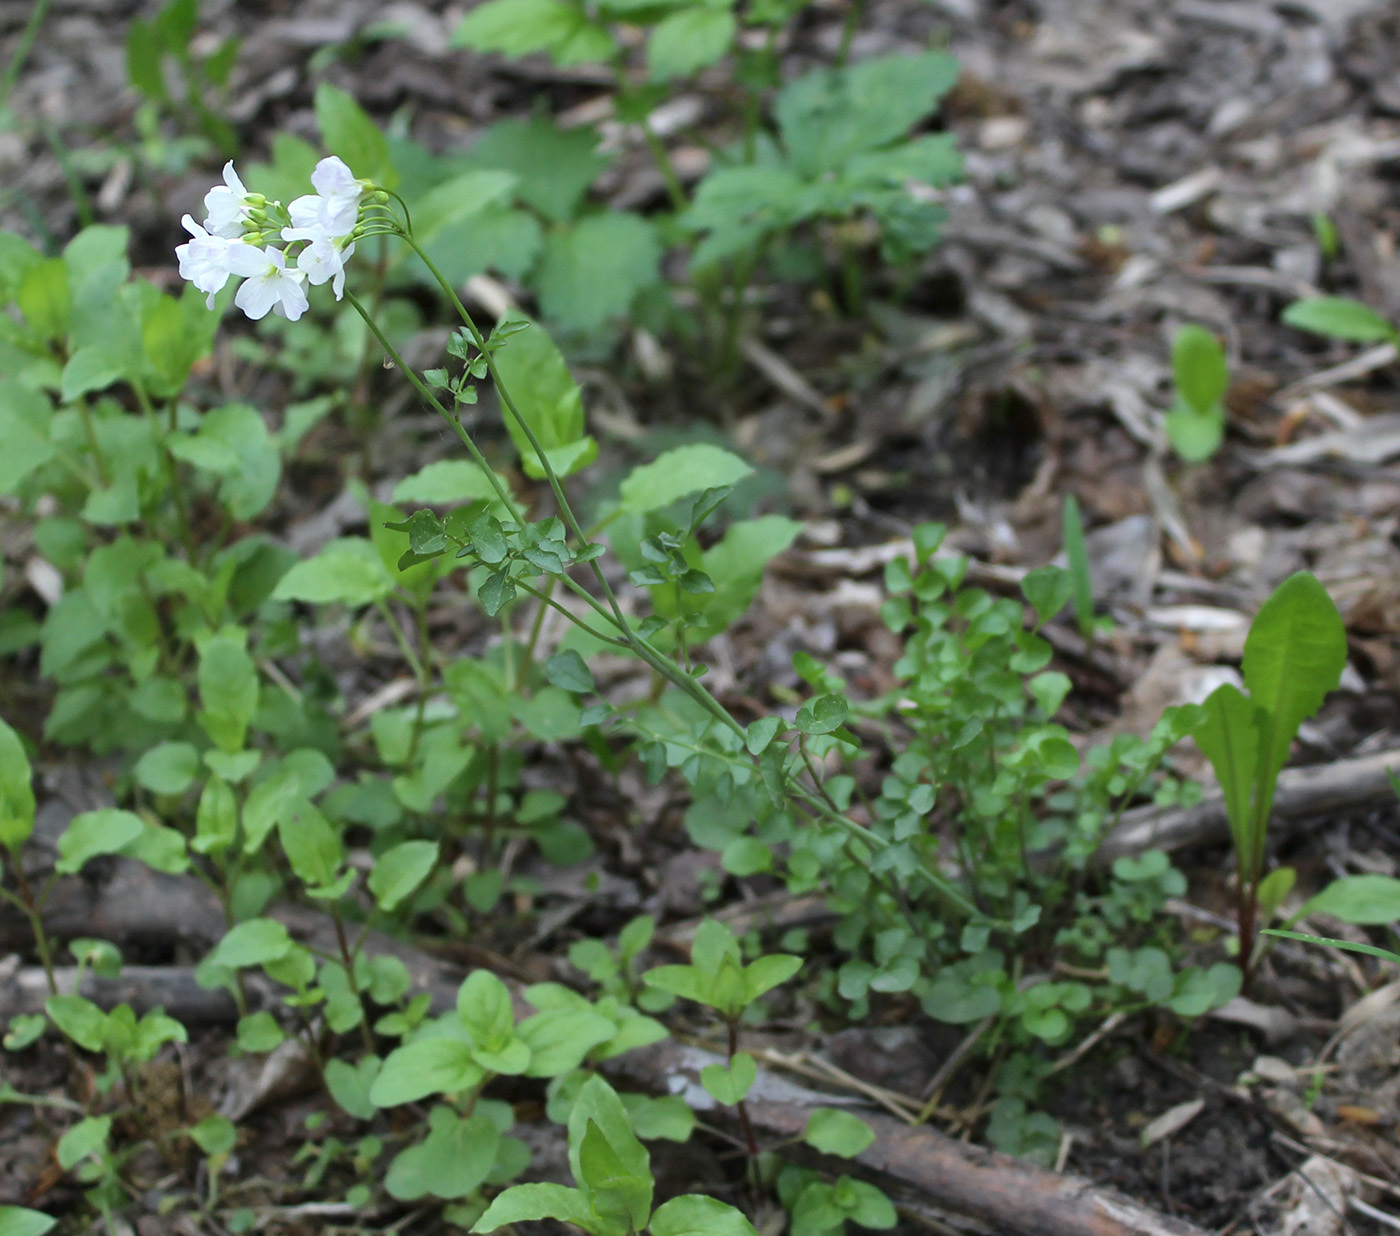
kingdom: Plantae
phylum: Tracheophyta
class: Magnoliopsida
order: Brassicales
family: Brassicaceae
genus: Cardamine
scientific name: Cardamine dentata
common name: Toothed bittercress
